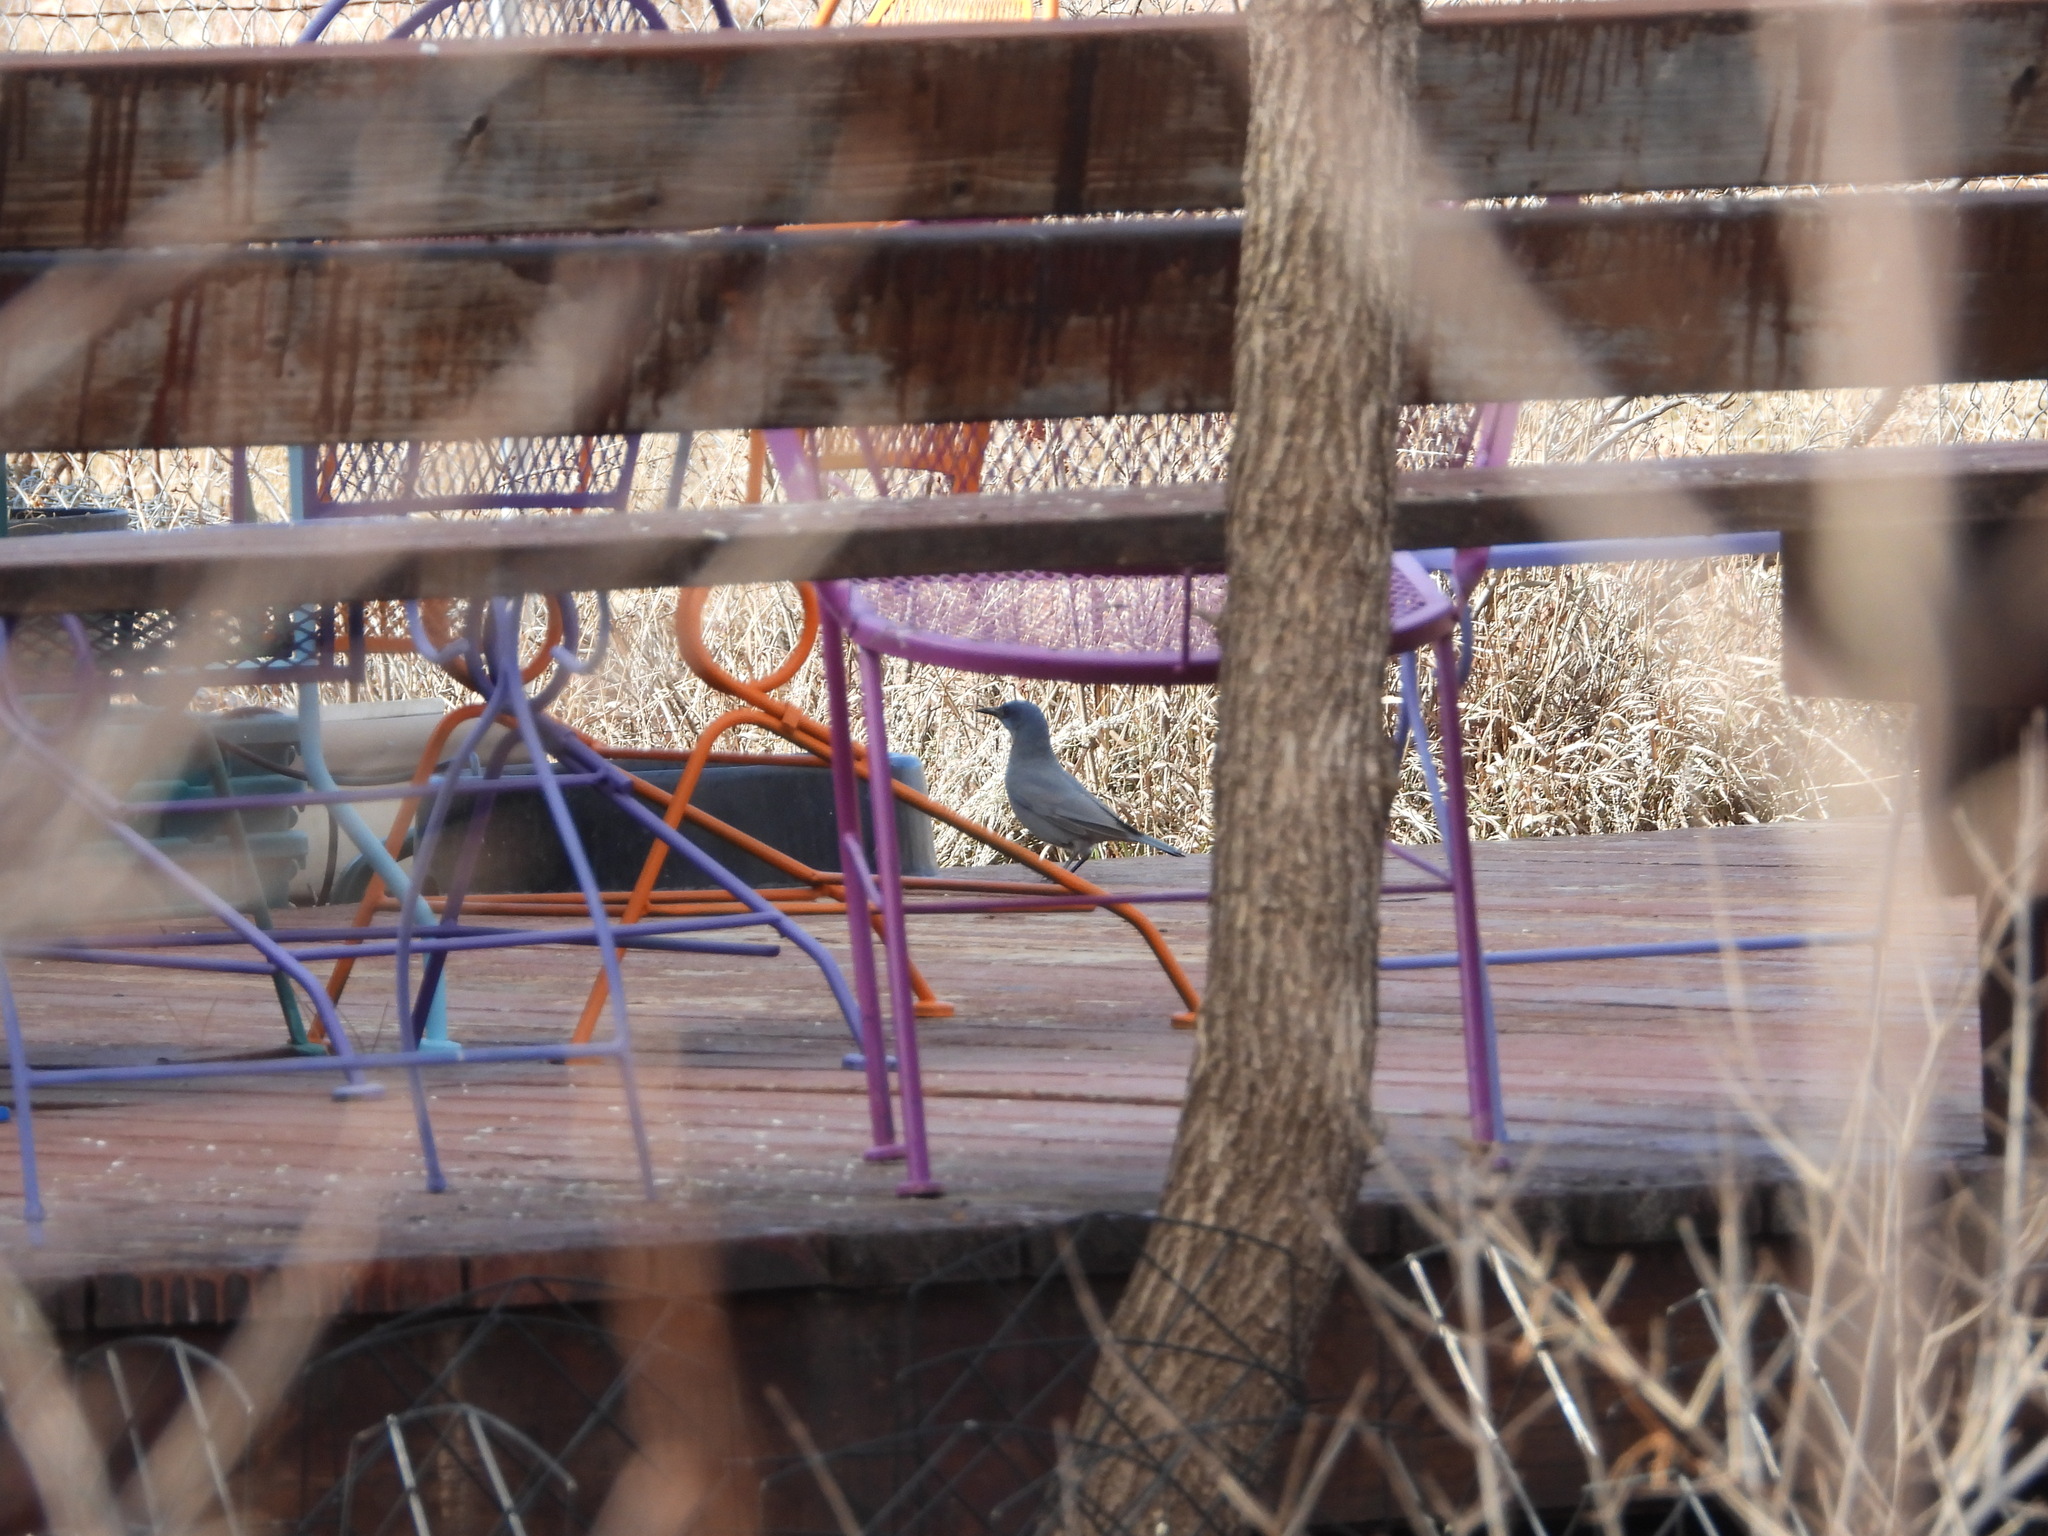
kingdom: Animalia
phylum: Chordata
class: Aves
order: Passeriformes
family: Corvidae
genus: Gymnorhinus
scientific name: Gymnorhinus cyanocephalus
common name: Pinyon jay
